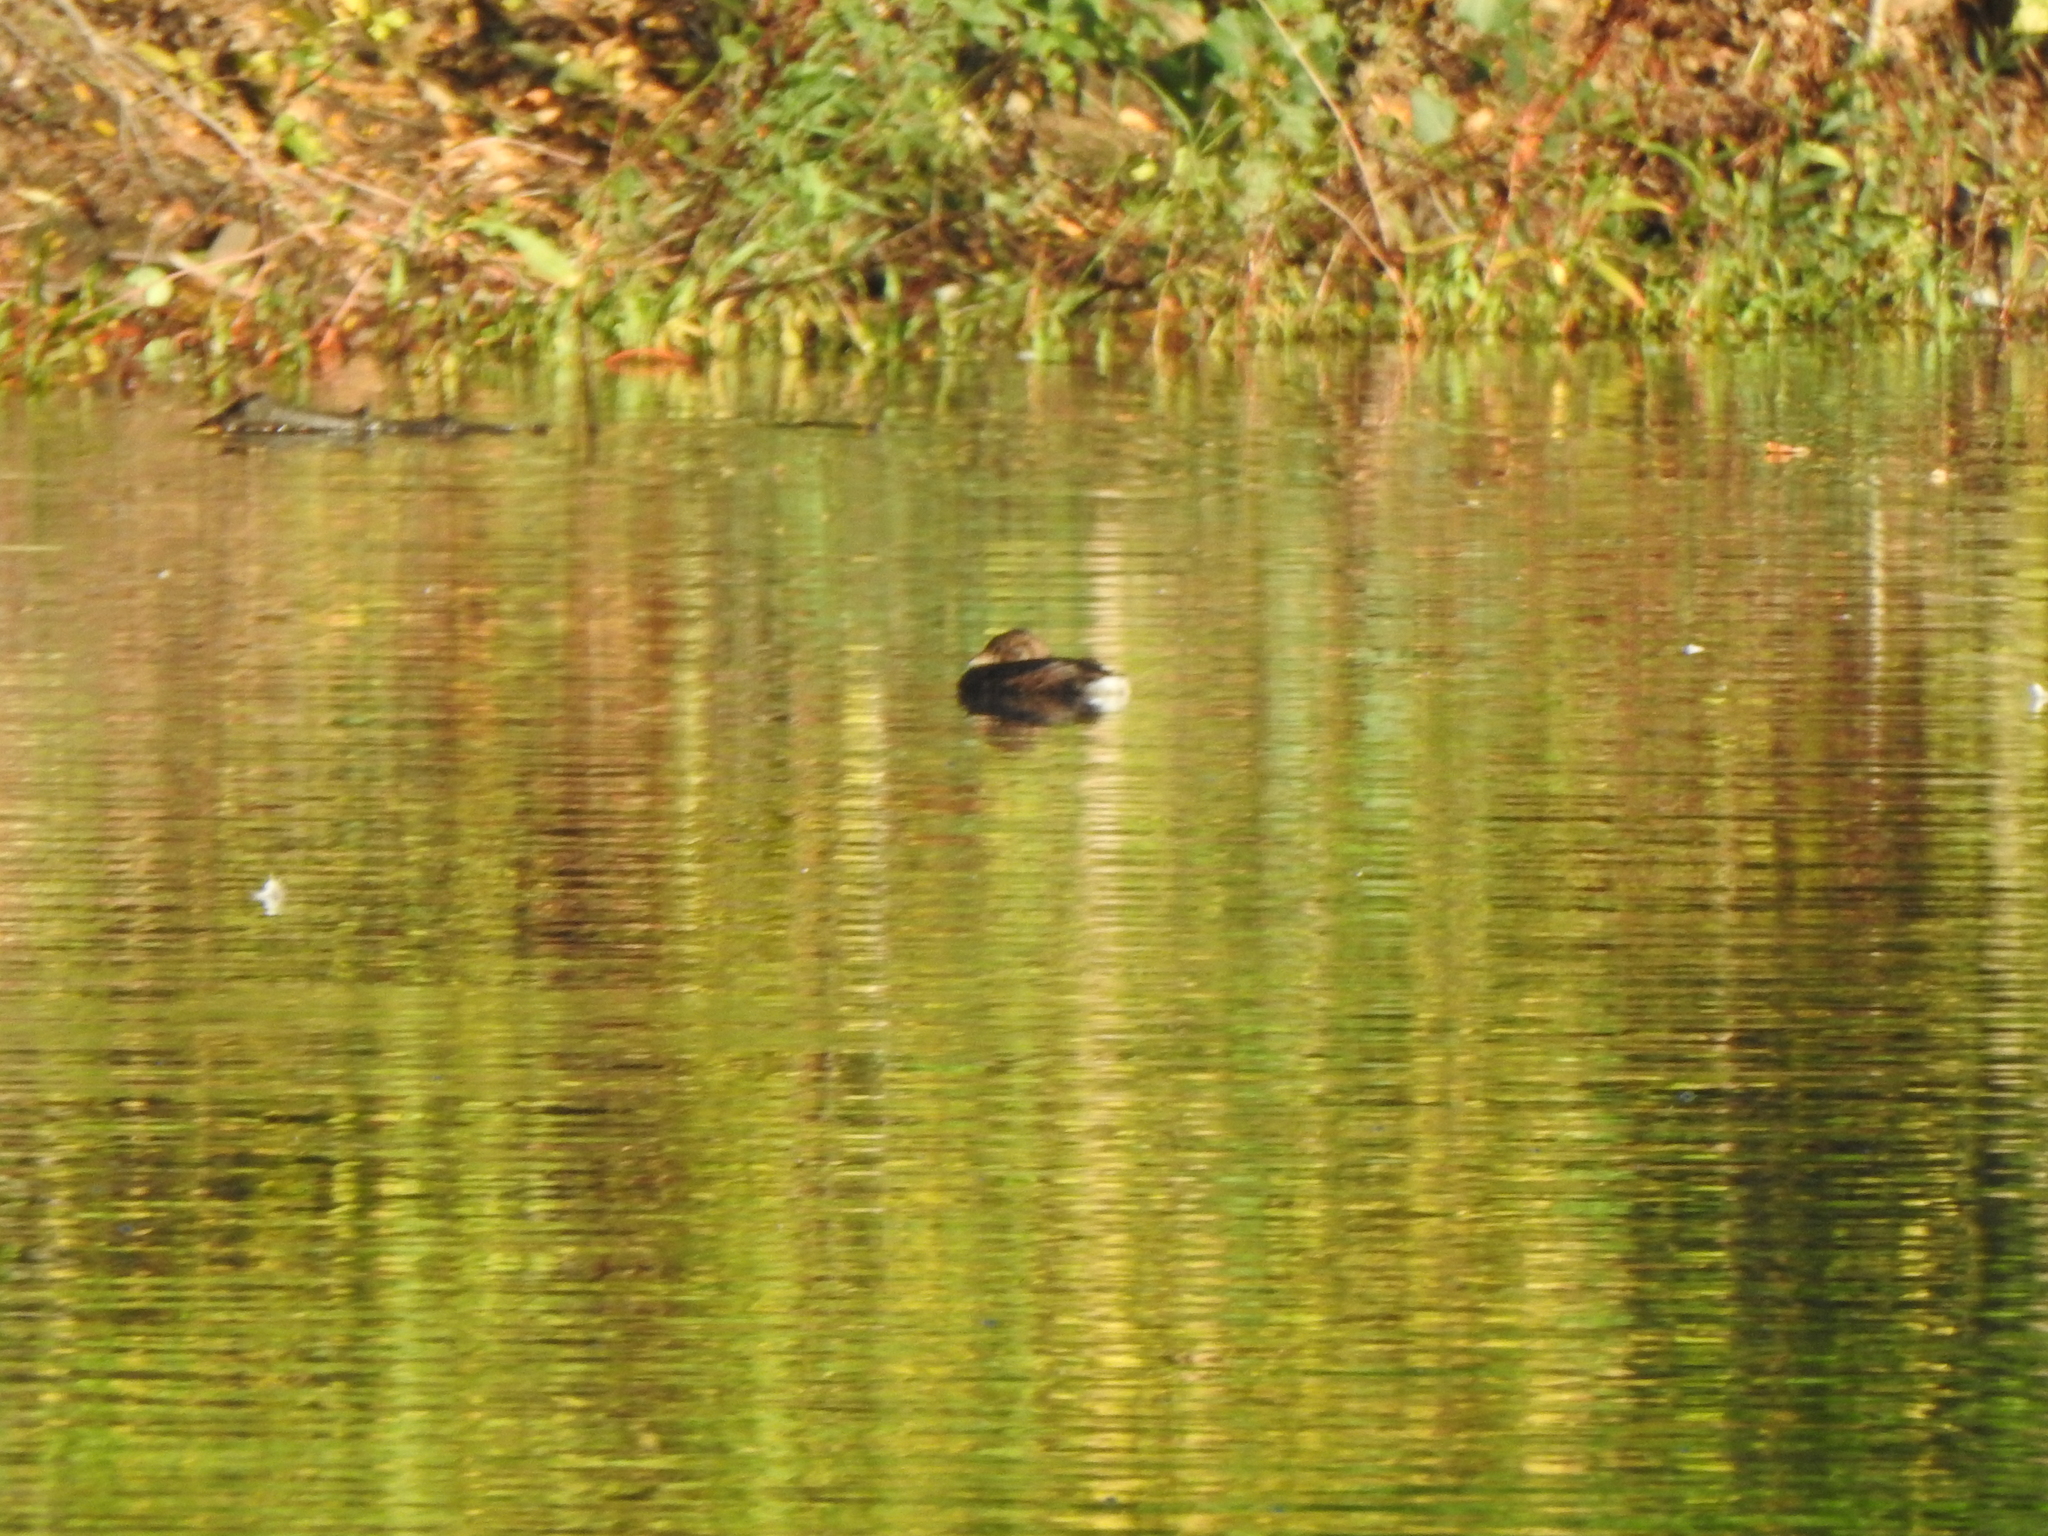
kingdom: Animalia
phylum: Chordata
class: Aves
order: Podicipediformes
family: Podicipedidae
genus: Podilymbus
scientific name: Podilymbus podiceps
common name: Pied-billed grebe
